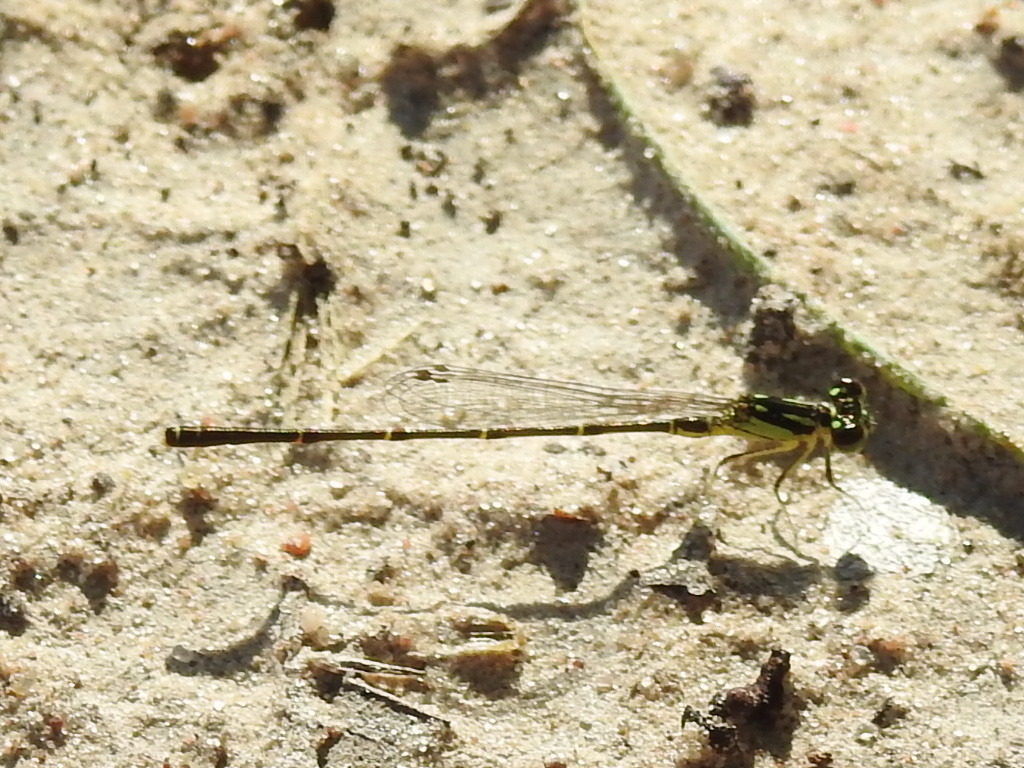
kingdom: Animalia
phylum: Arthropoda
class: Insecta
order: Odonata
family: Coenagrionidae
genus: Ischnura
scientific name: Ischnura posita
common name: Fragile forktail
